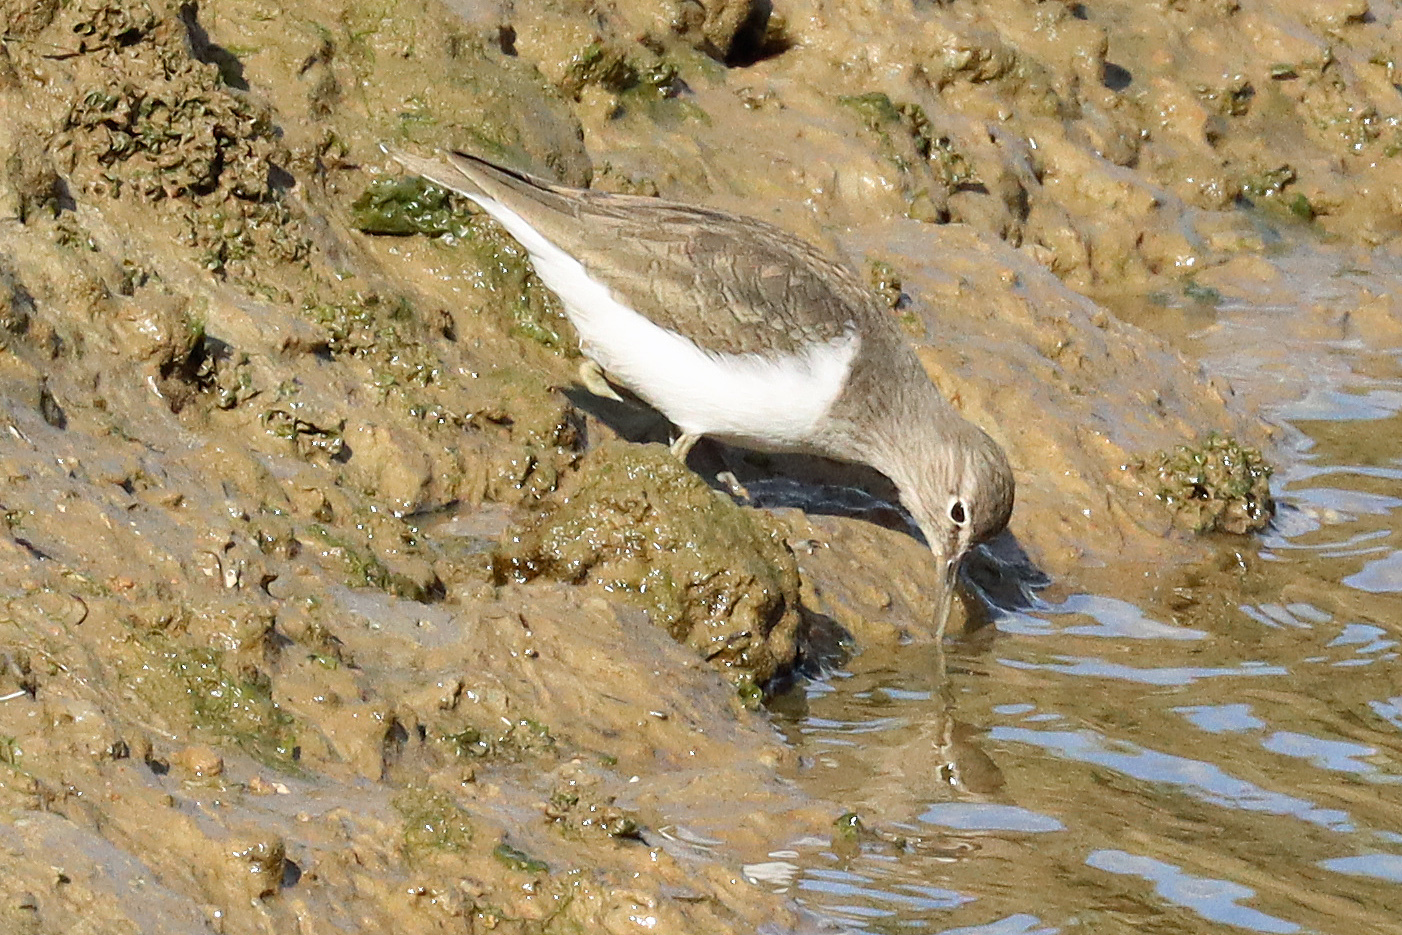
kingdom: Animalia
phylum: Chordata
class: Aves
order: Charadriiformes
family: Scolopacidae
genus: Actitis
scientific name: Actitis hypoleucos
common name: Common sandpiper
